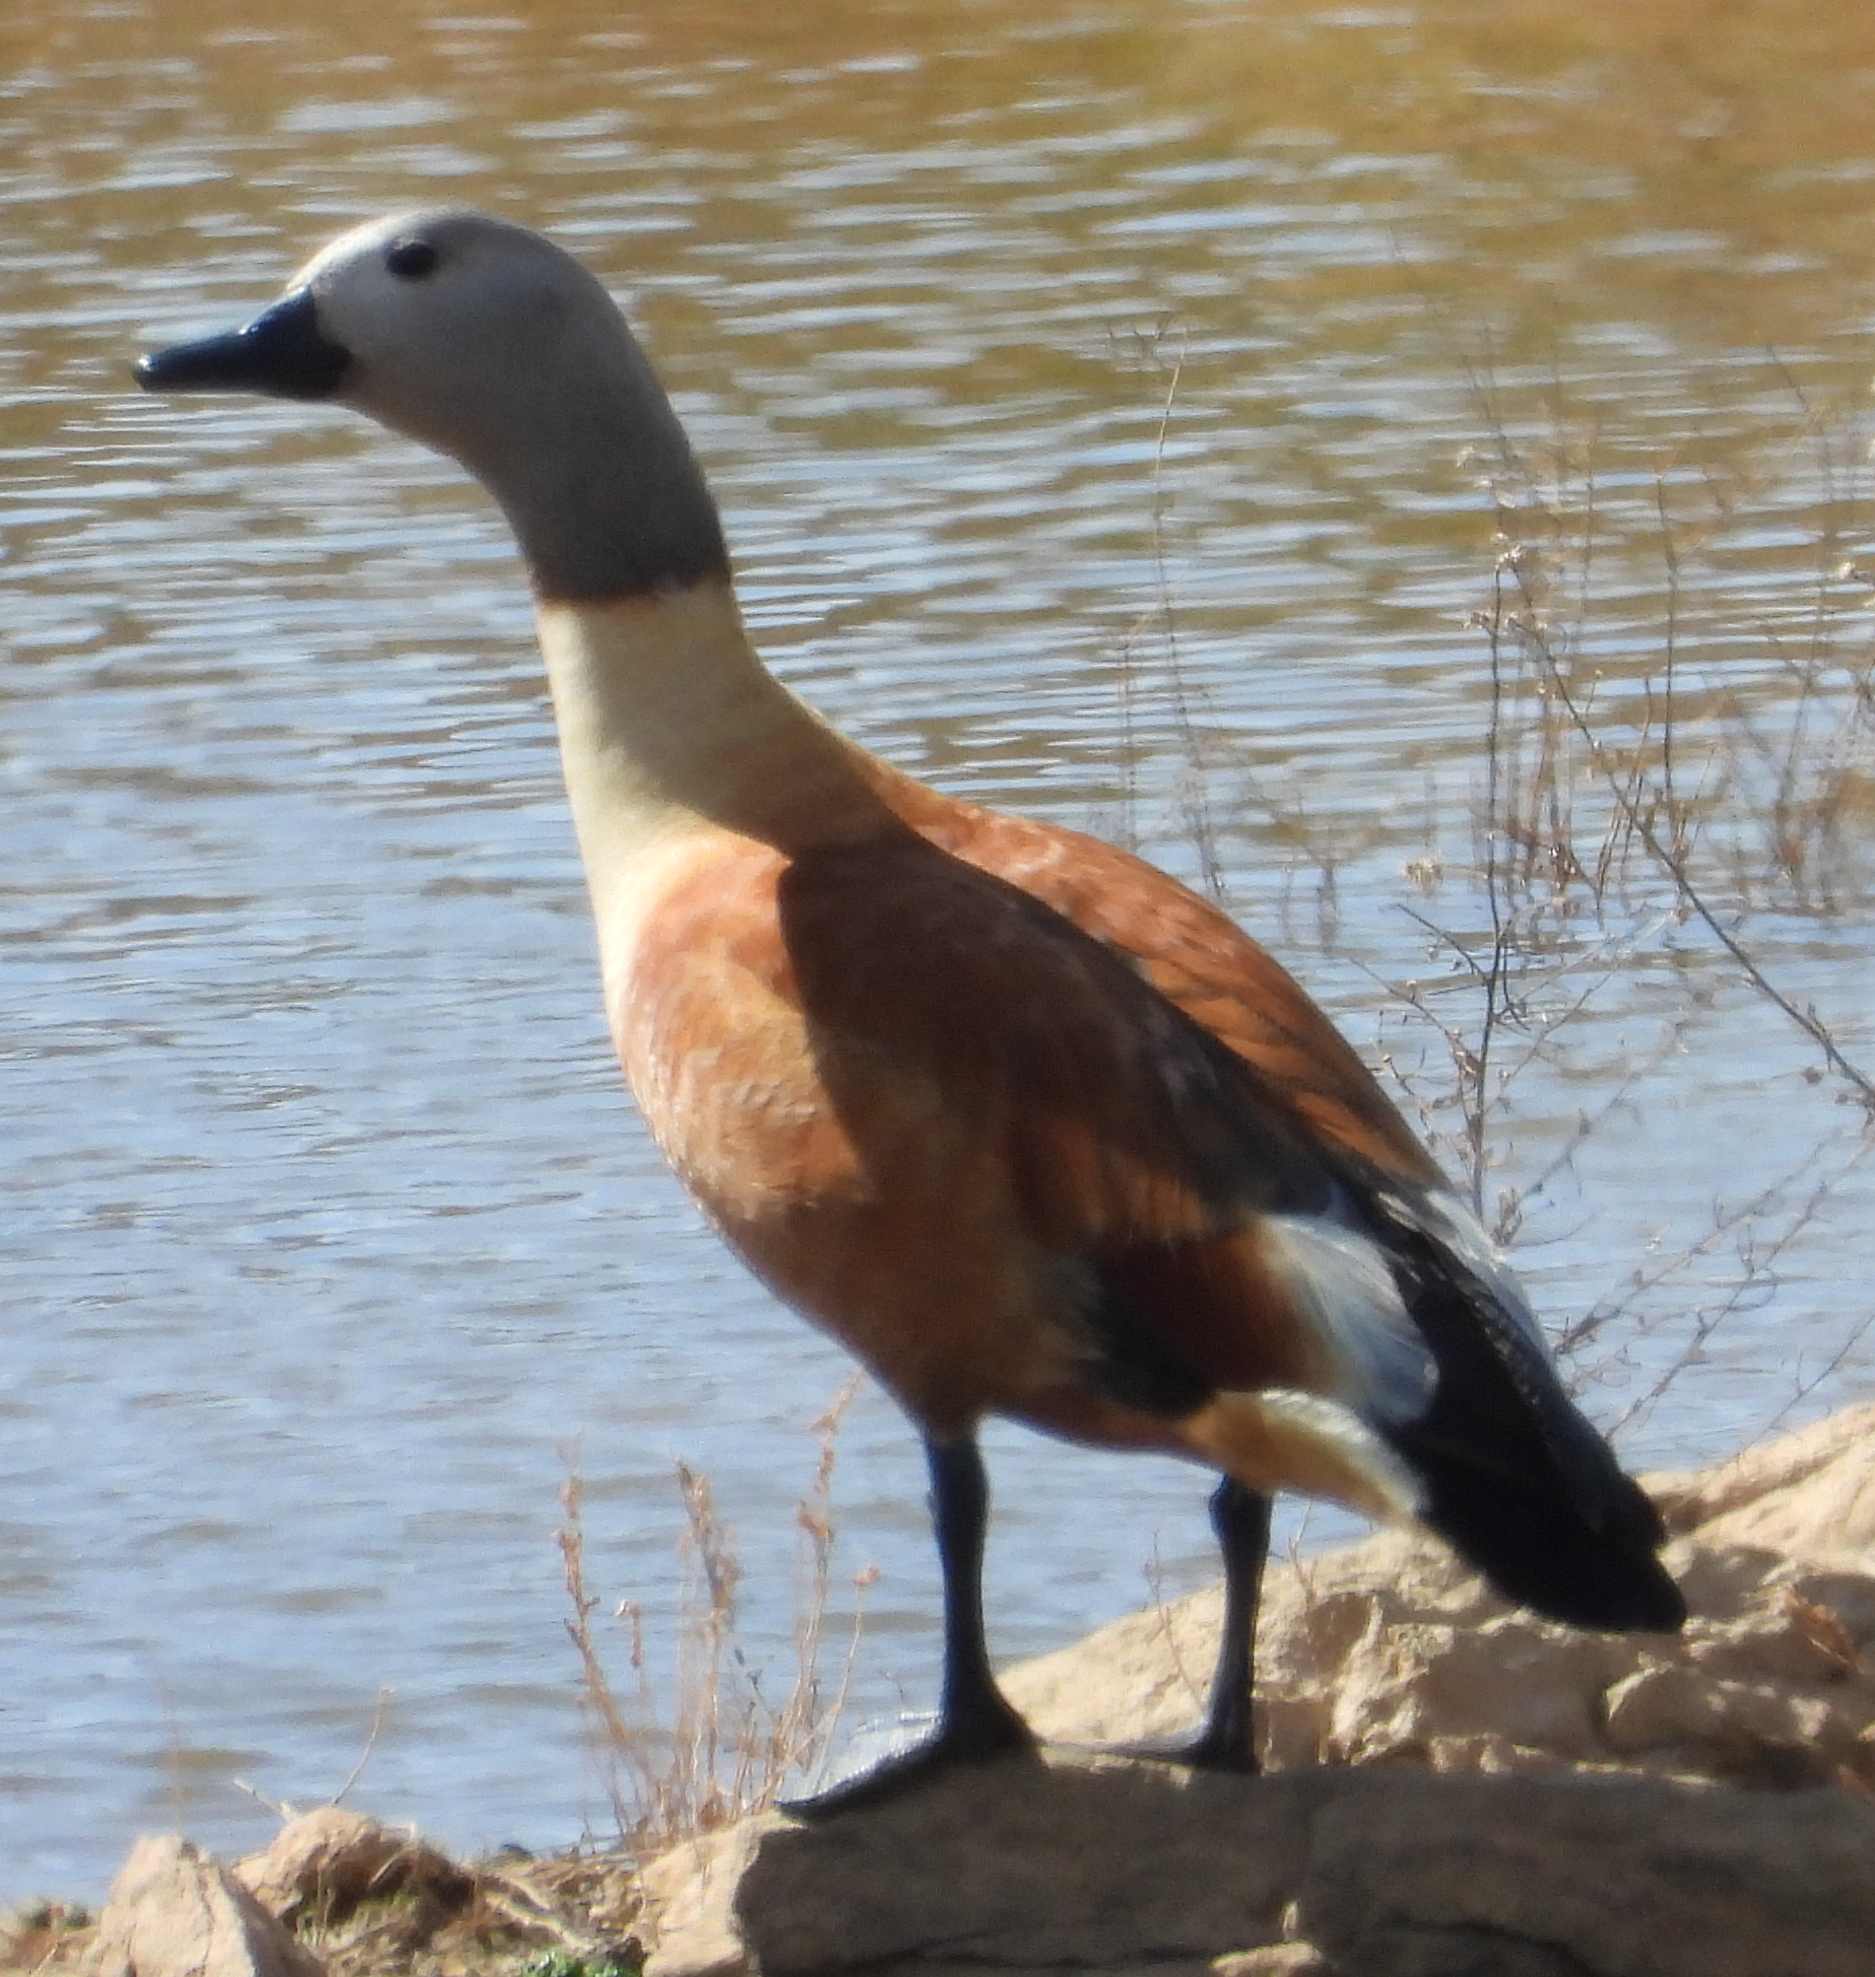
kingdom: Animalia
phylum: Chordata
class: Aves
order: Anseriformes
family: Anatidae
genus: Tadorna
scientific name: Tadorna cana
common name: South african shelduck
